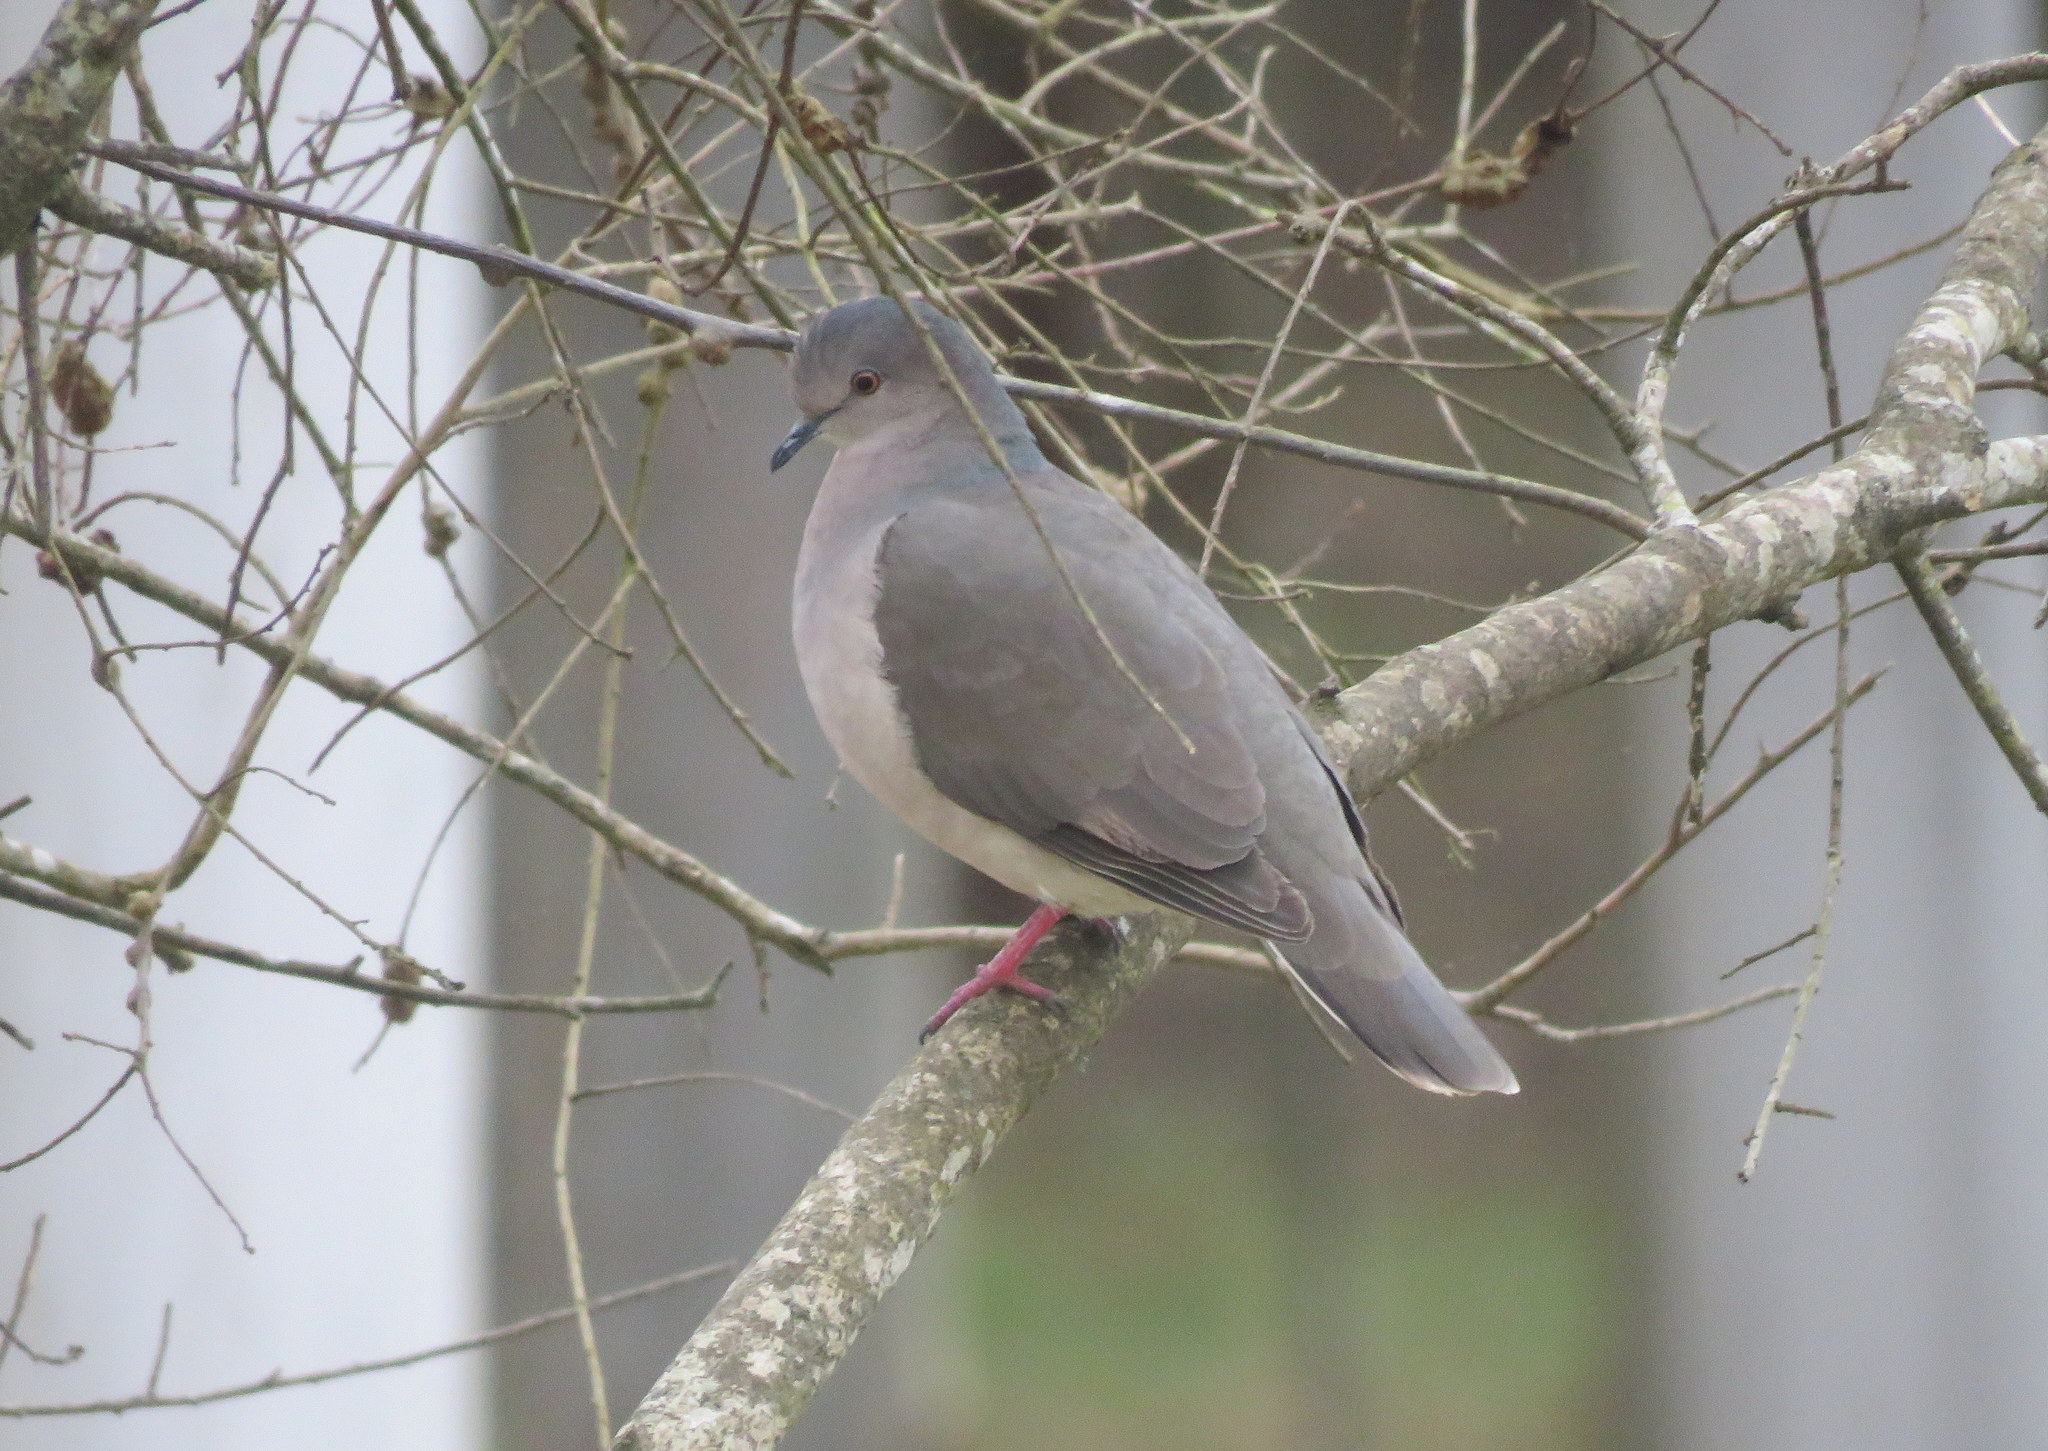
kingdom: Animalia
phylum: Chordata
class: Aves
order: Columbiformes
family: Columbidae
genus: Leptotila
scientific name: Leptotila verreauxi
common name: White-tipped dove
